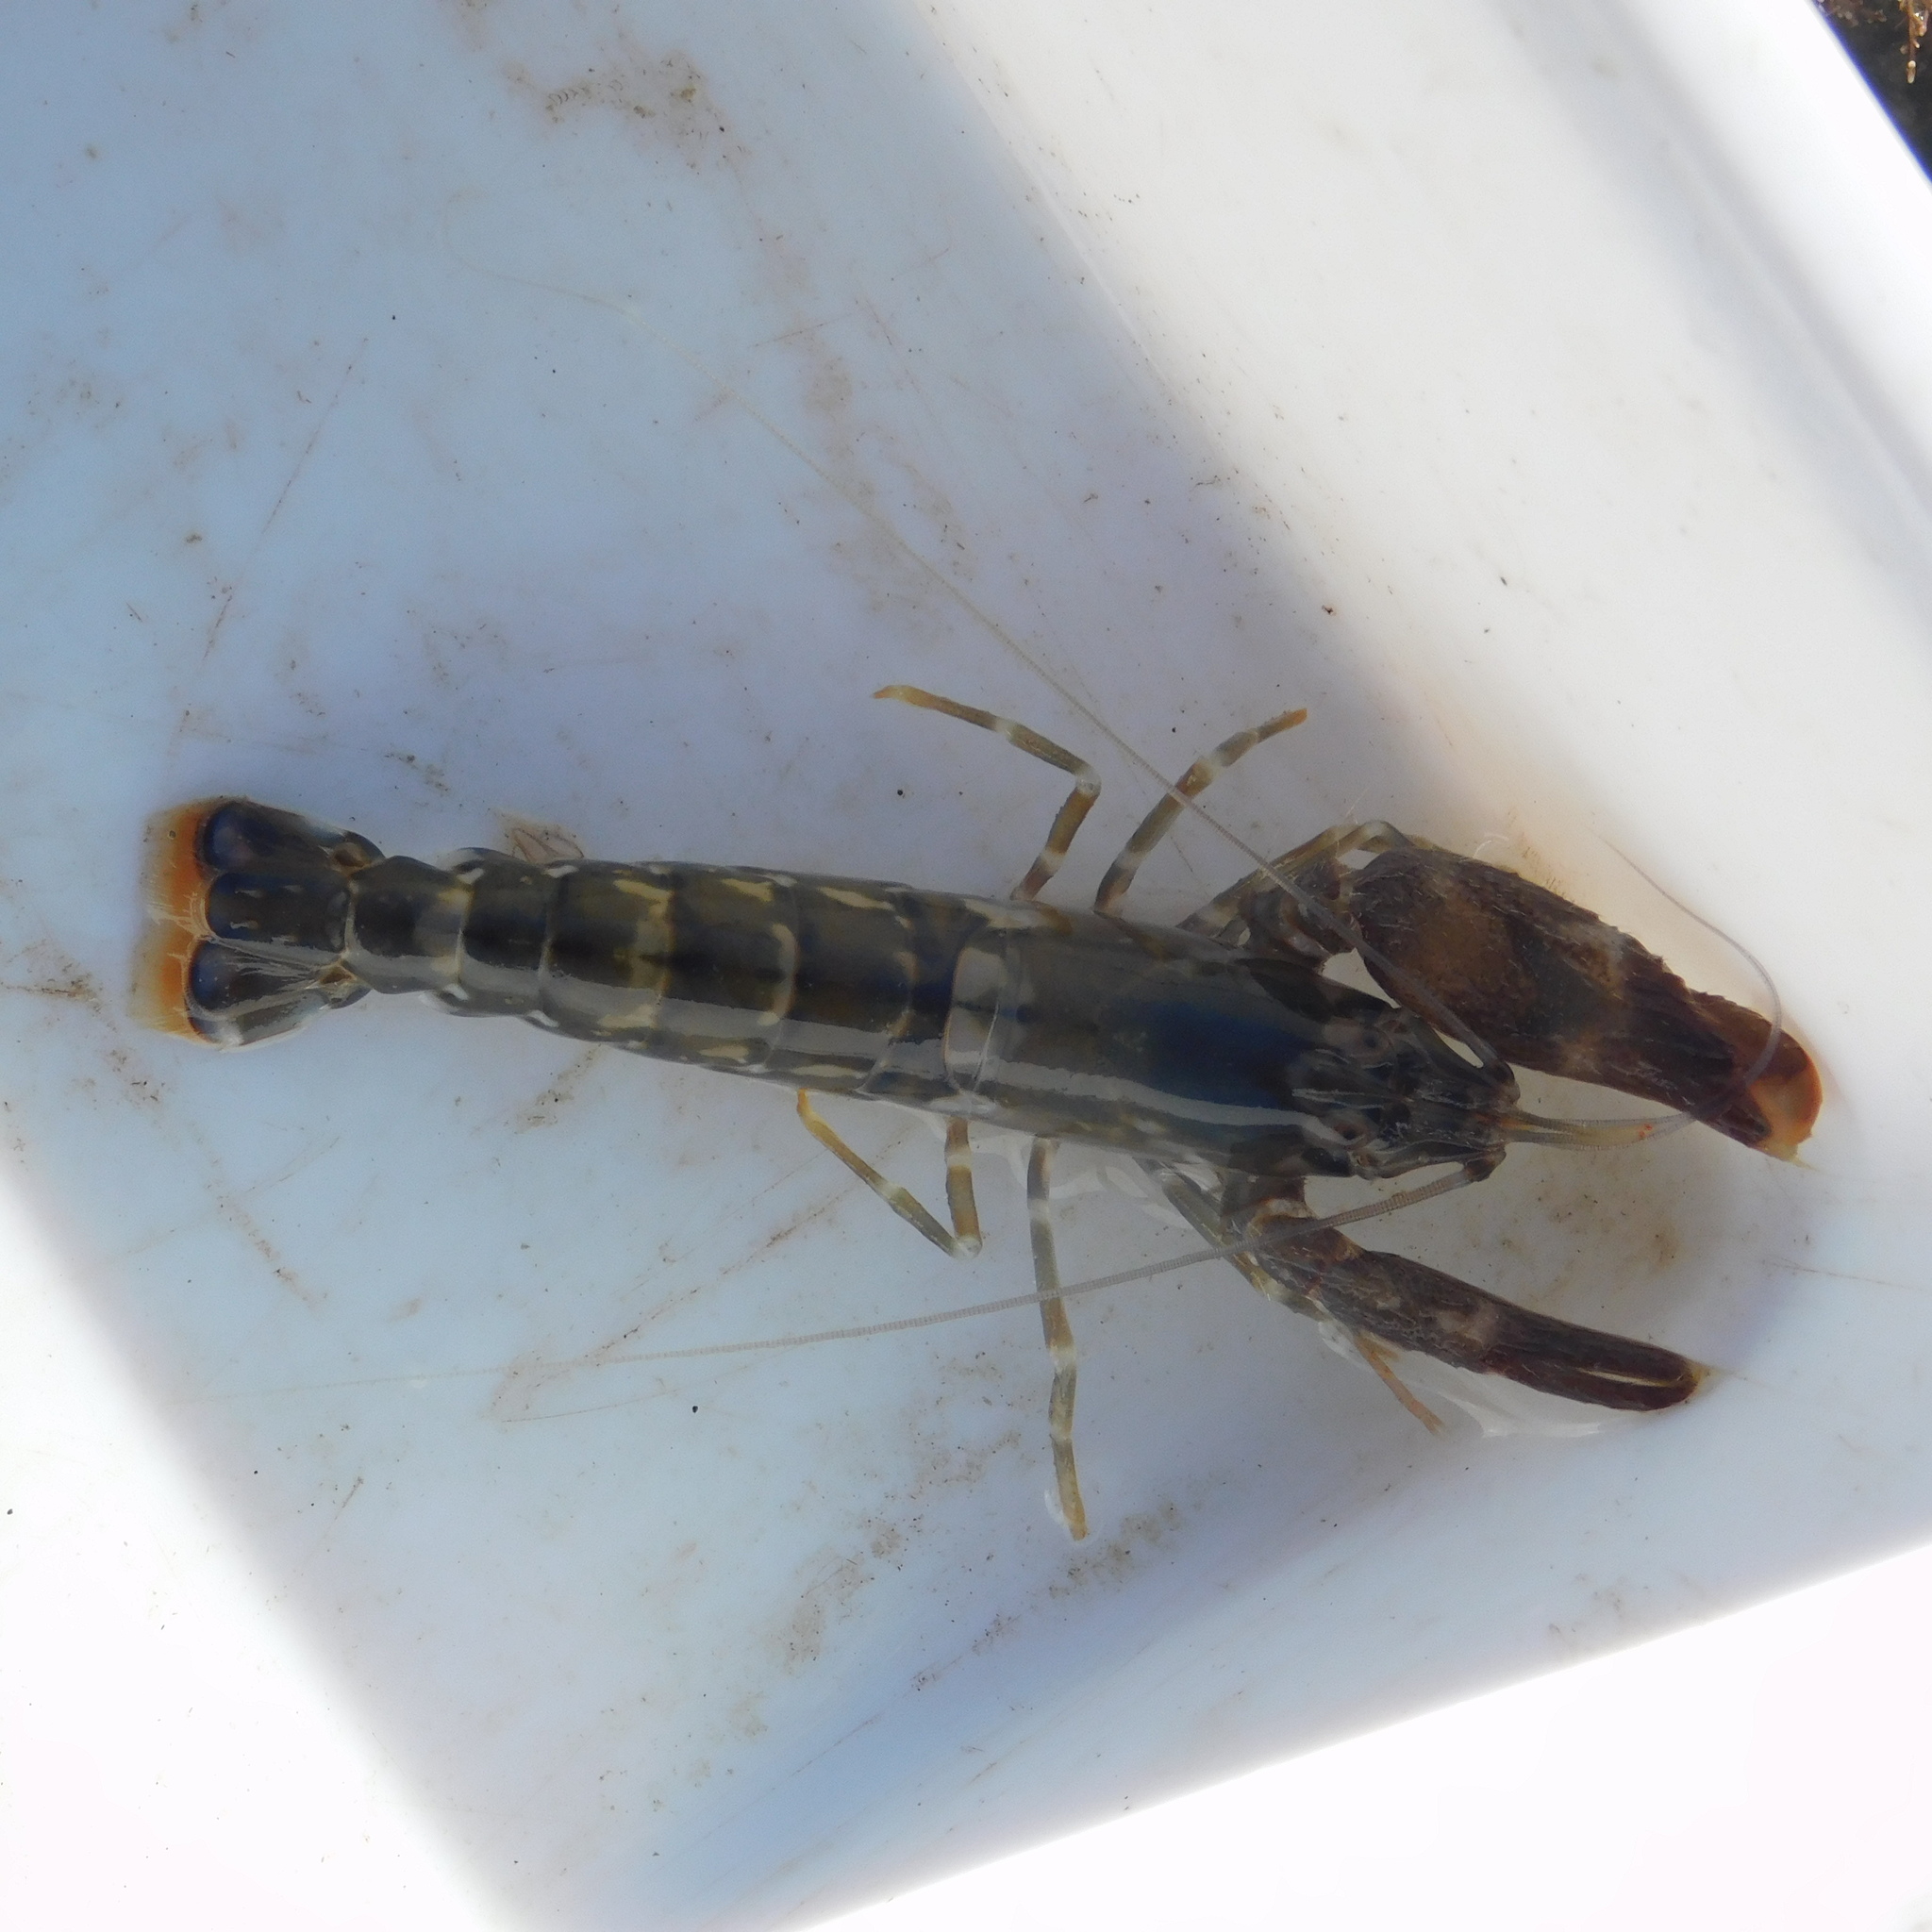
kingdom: Animalia
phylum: Arthropoda
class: Malacostraca
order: Decapoda
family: Alpheidae
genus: Alpheus
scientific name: Alpheus novaezealandiae
